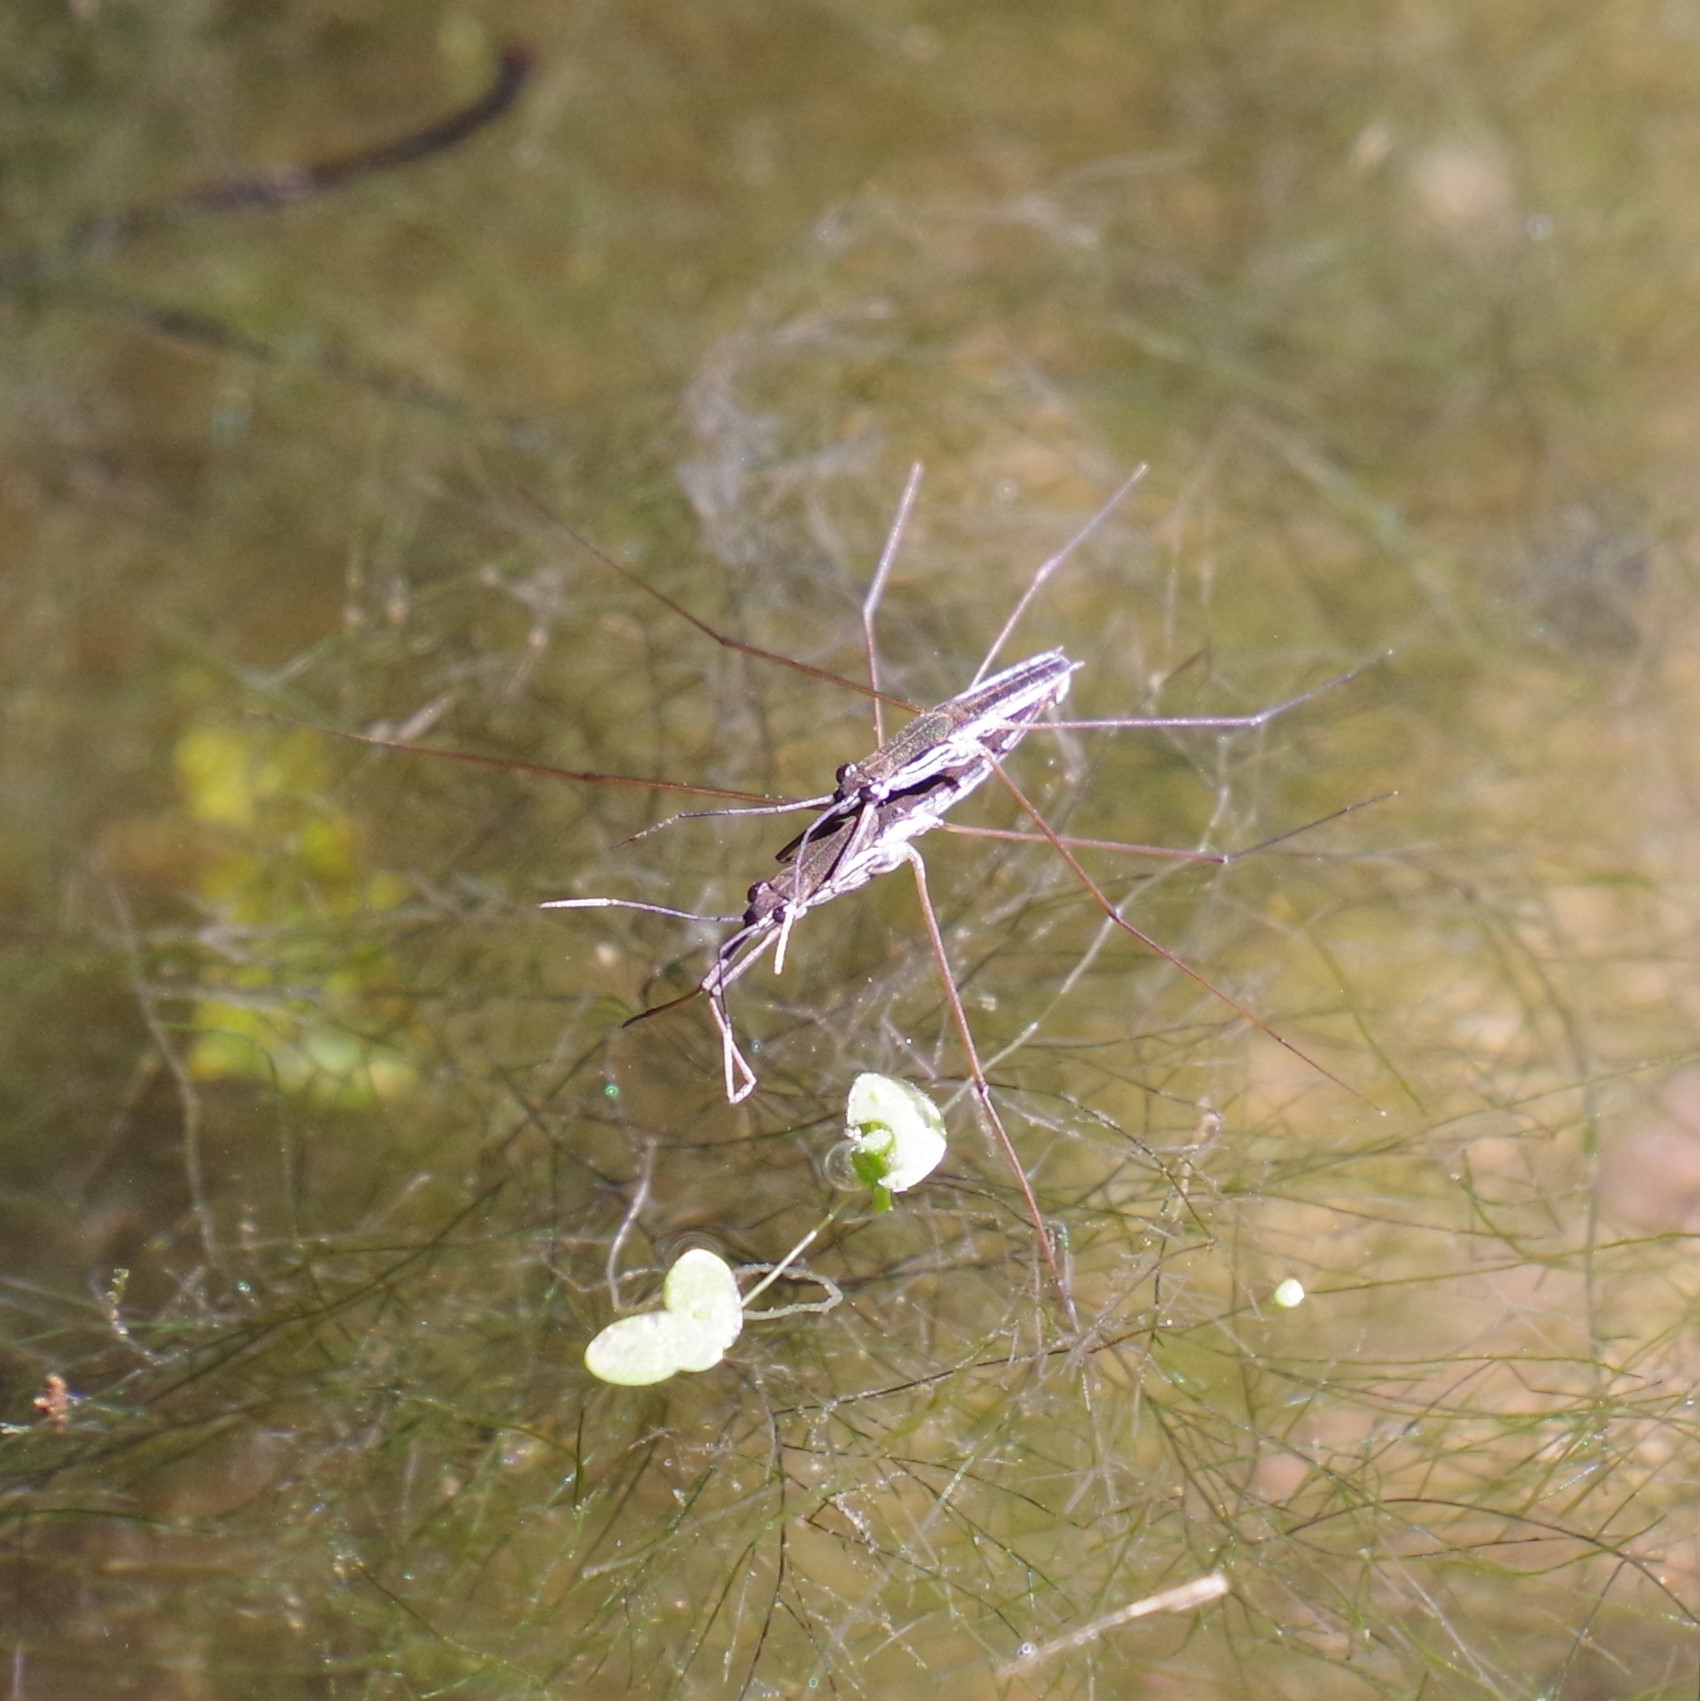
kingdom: Animalia
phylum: Arthropoda
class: Insecta
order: Hemiptera
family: Gerridae
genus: Limnoporus
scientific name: Limnoporus canaliculatus
